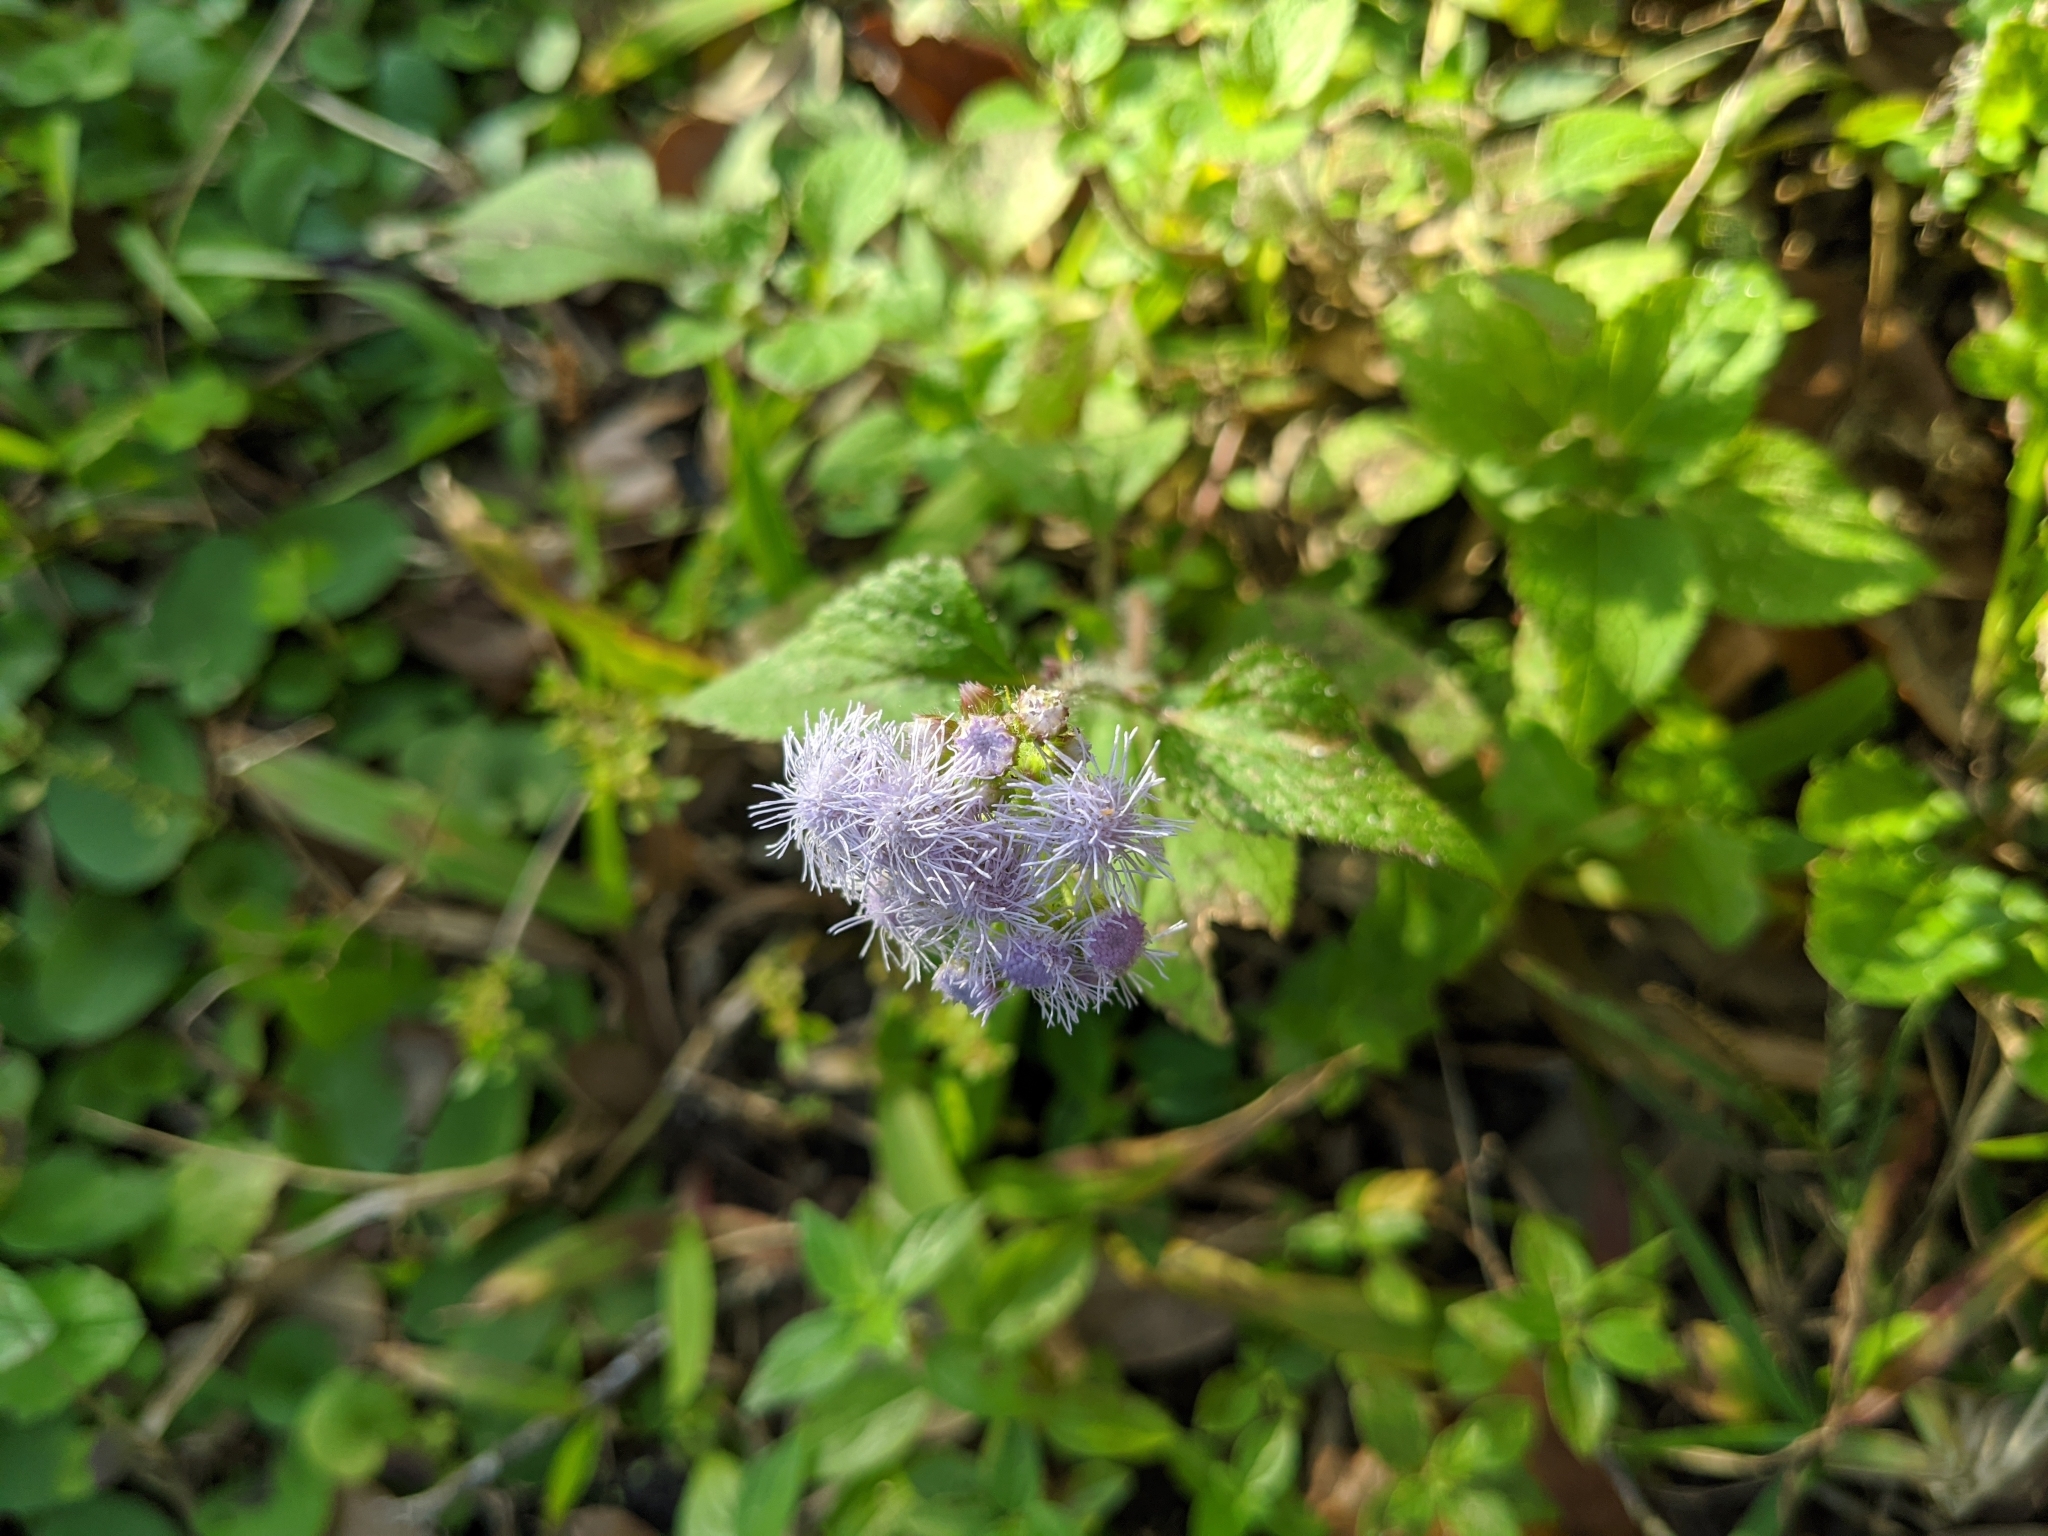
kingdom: Plantae
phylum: Tracheophyta
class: Magnoliopsida
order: Asterales
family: Asteraceae
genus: Ageratum
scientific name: Ageratum houstonianum
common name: Bluemink
